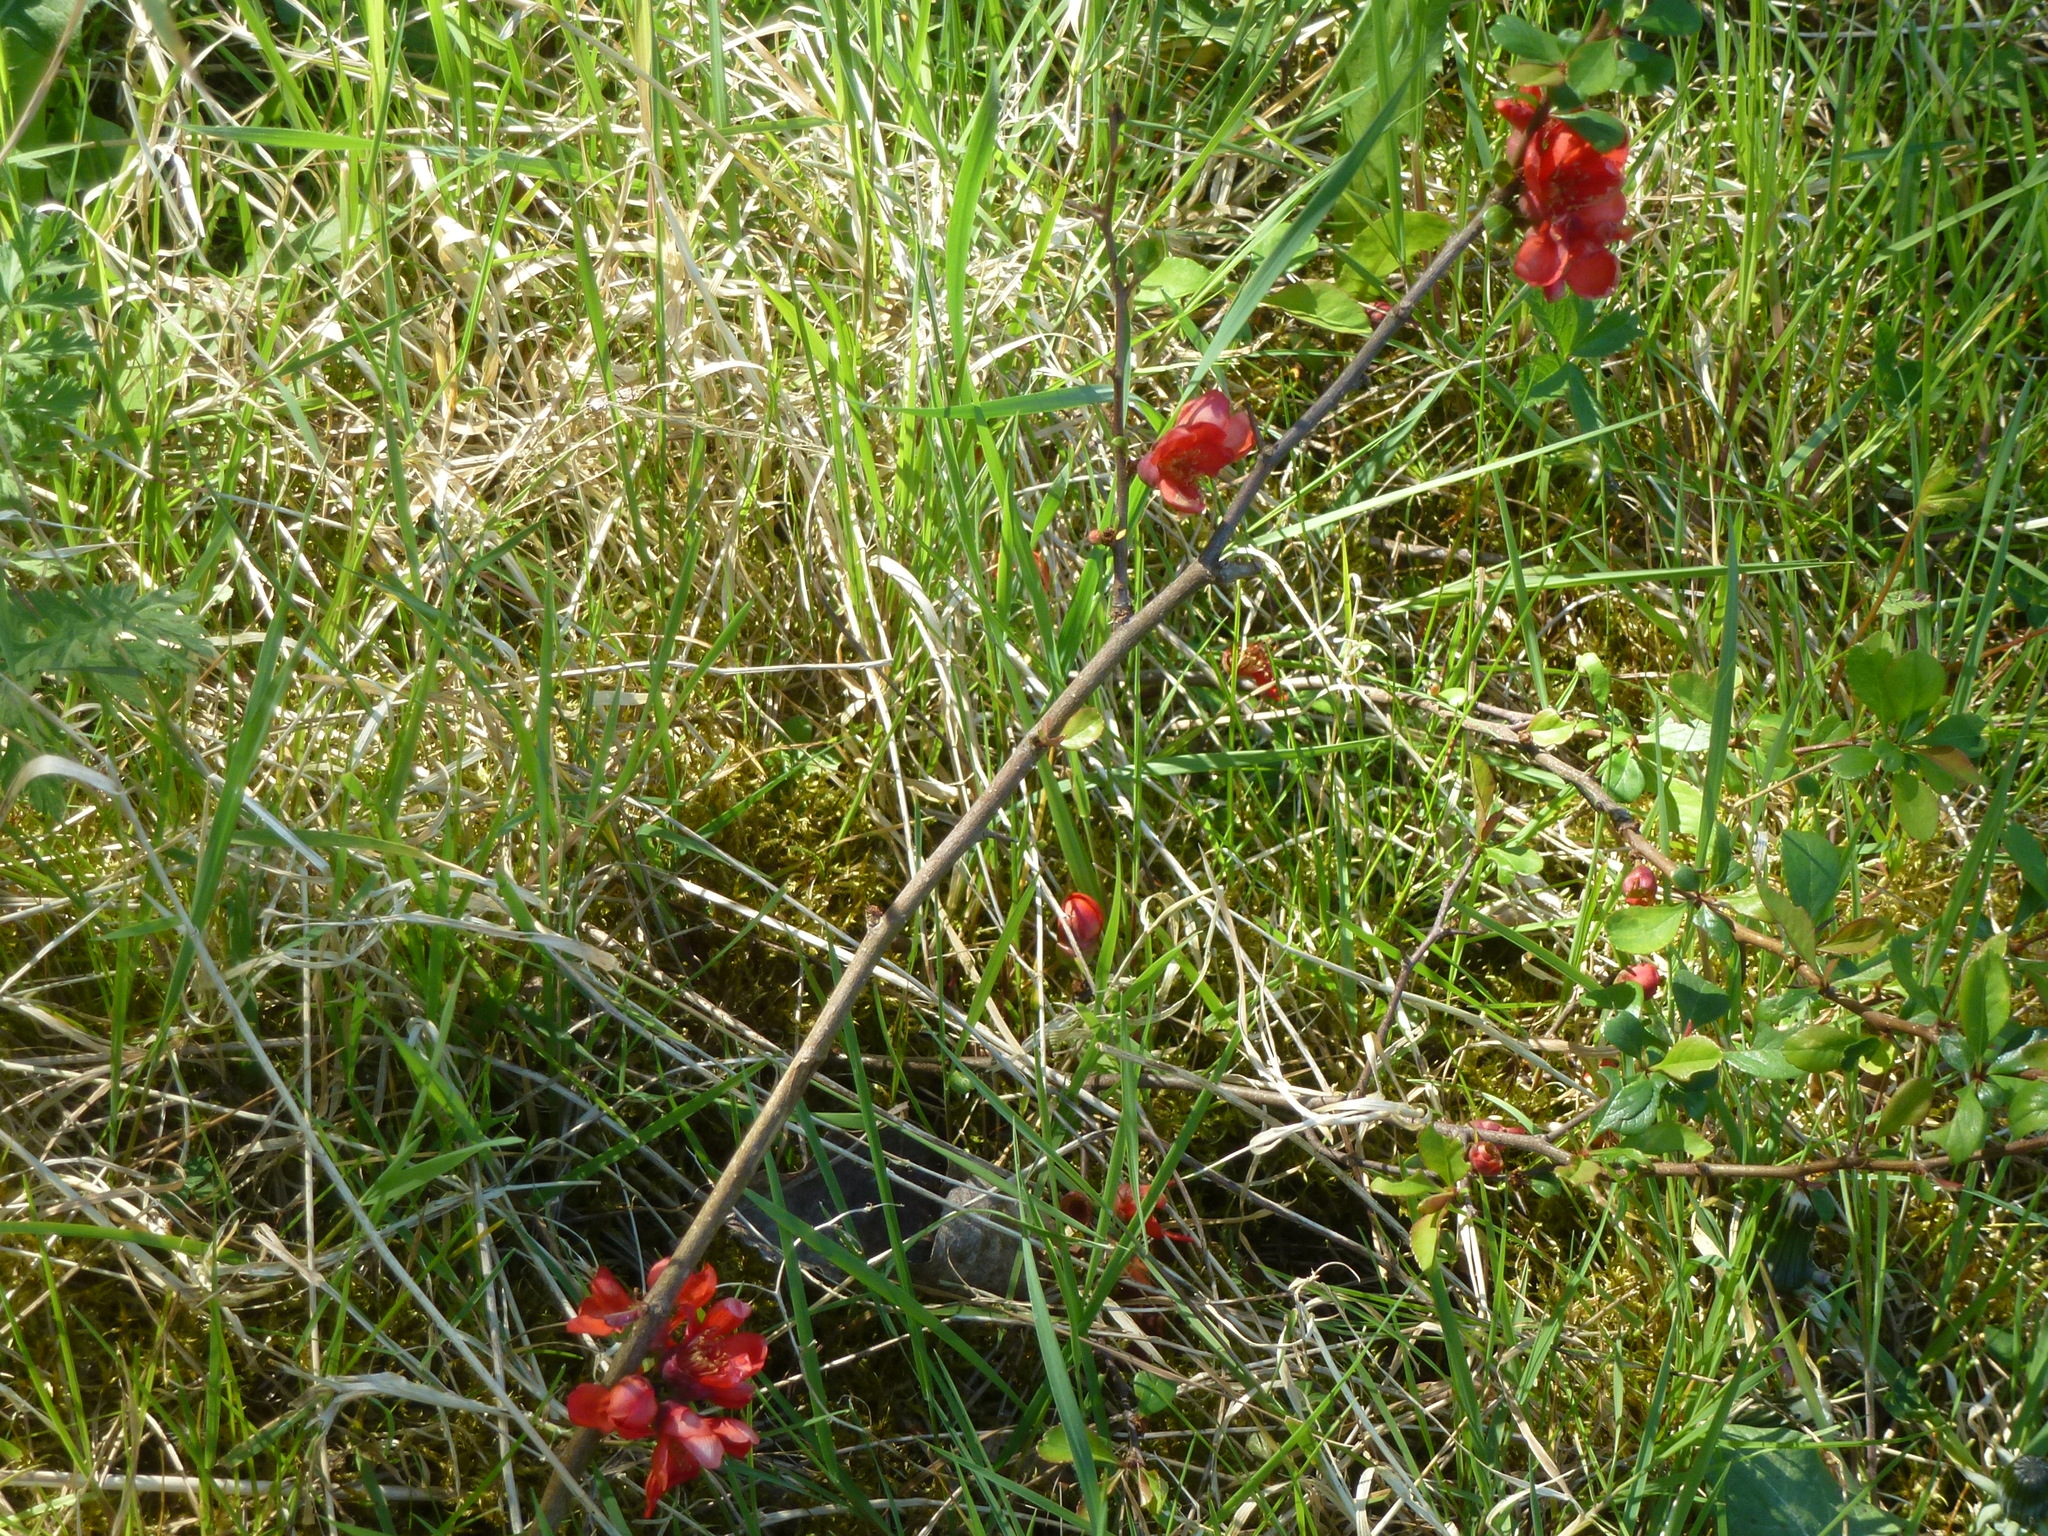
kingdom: Plantae
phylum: Tracheophyta
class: Magnoliopsida
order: Rosales
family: Rosaceae
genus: Chaenomeles
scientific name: Chaenomeles japonica
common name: Japanese quince
